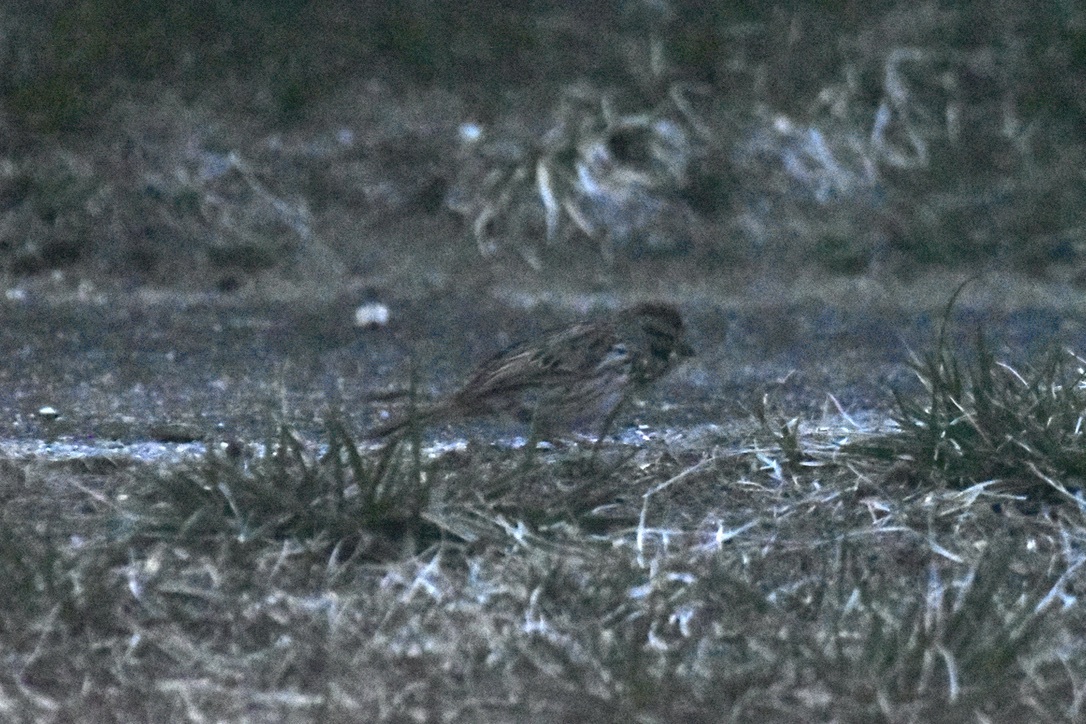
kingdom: Animalia
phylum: Chordata
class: Aves
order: Passeriformes
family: Passerellidae
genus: Melospiza
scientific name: Melospiza melodia
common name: Song sparrow
